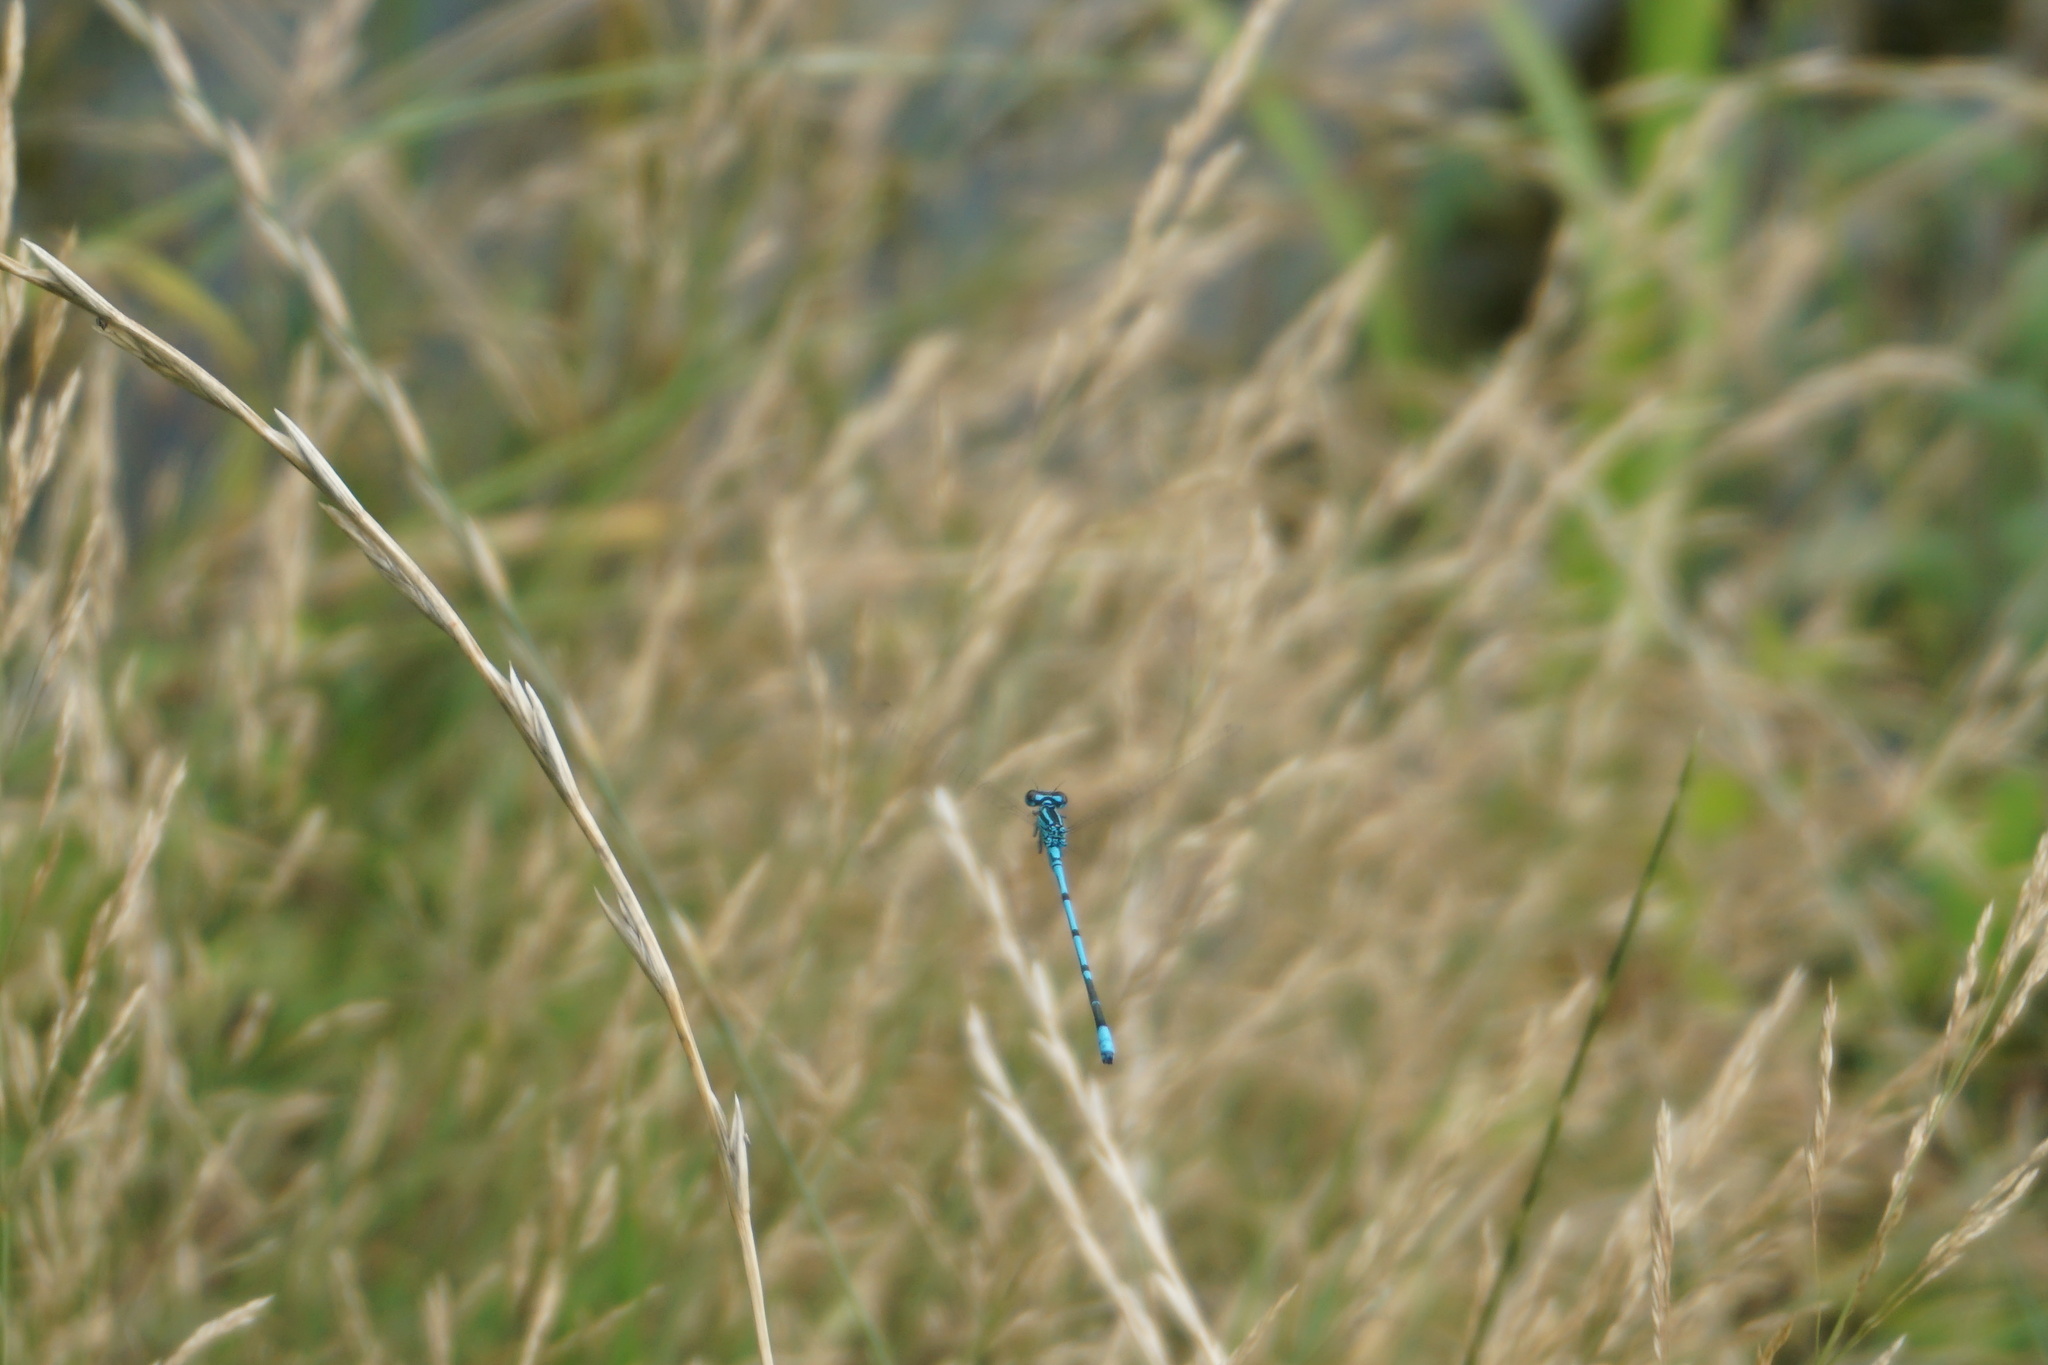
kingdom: Animalia
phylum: Arthropoda
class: Insecta
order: Odonata
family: Coenagrionidae
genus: Coenagrion
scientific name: Coenagrion puella
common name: Azure damselfly
